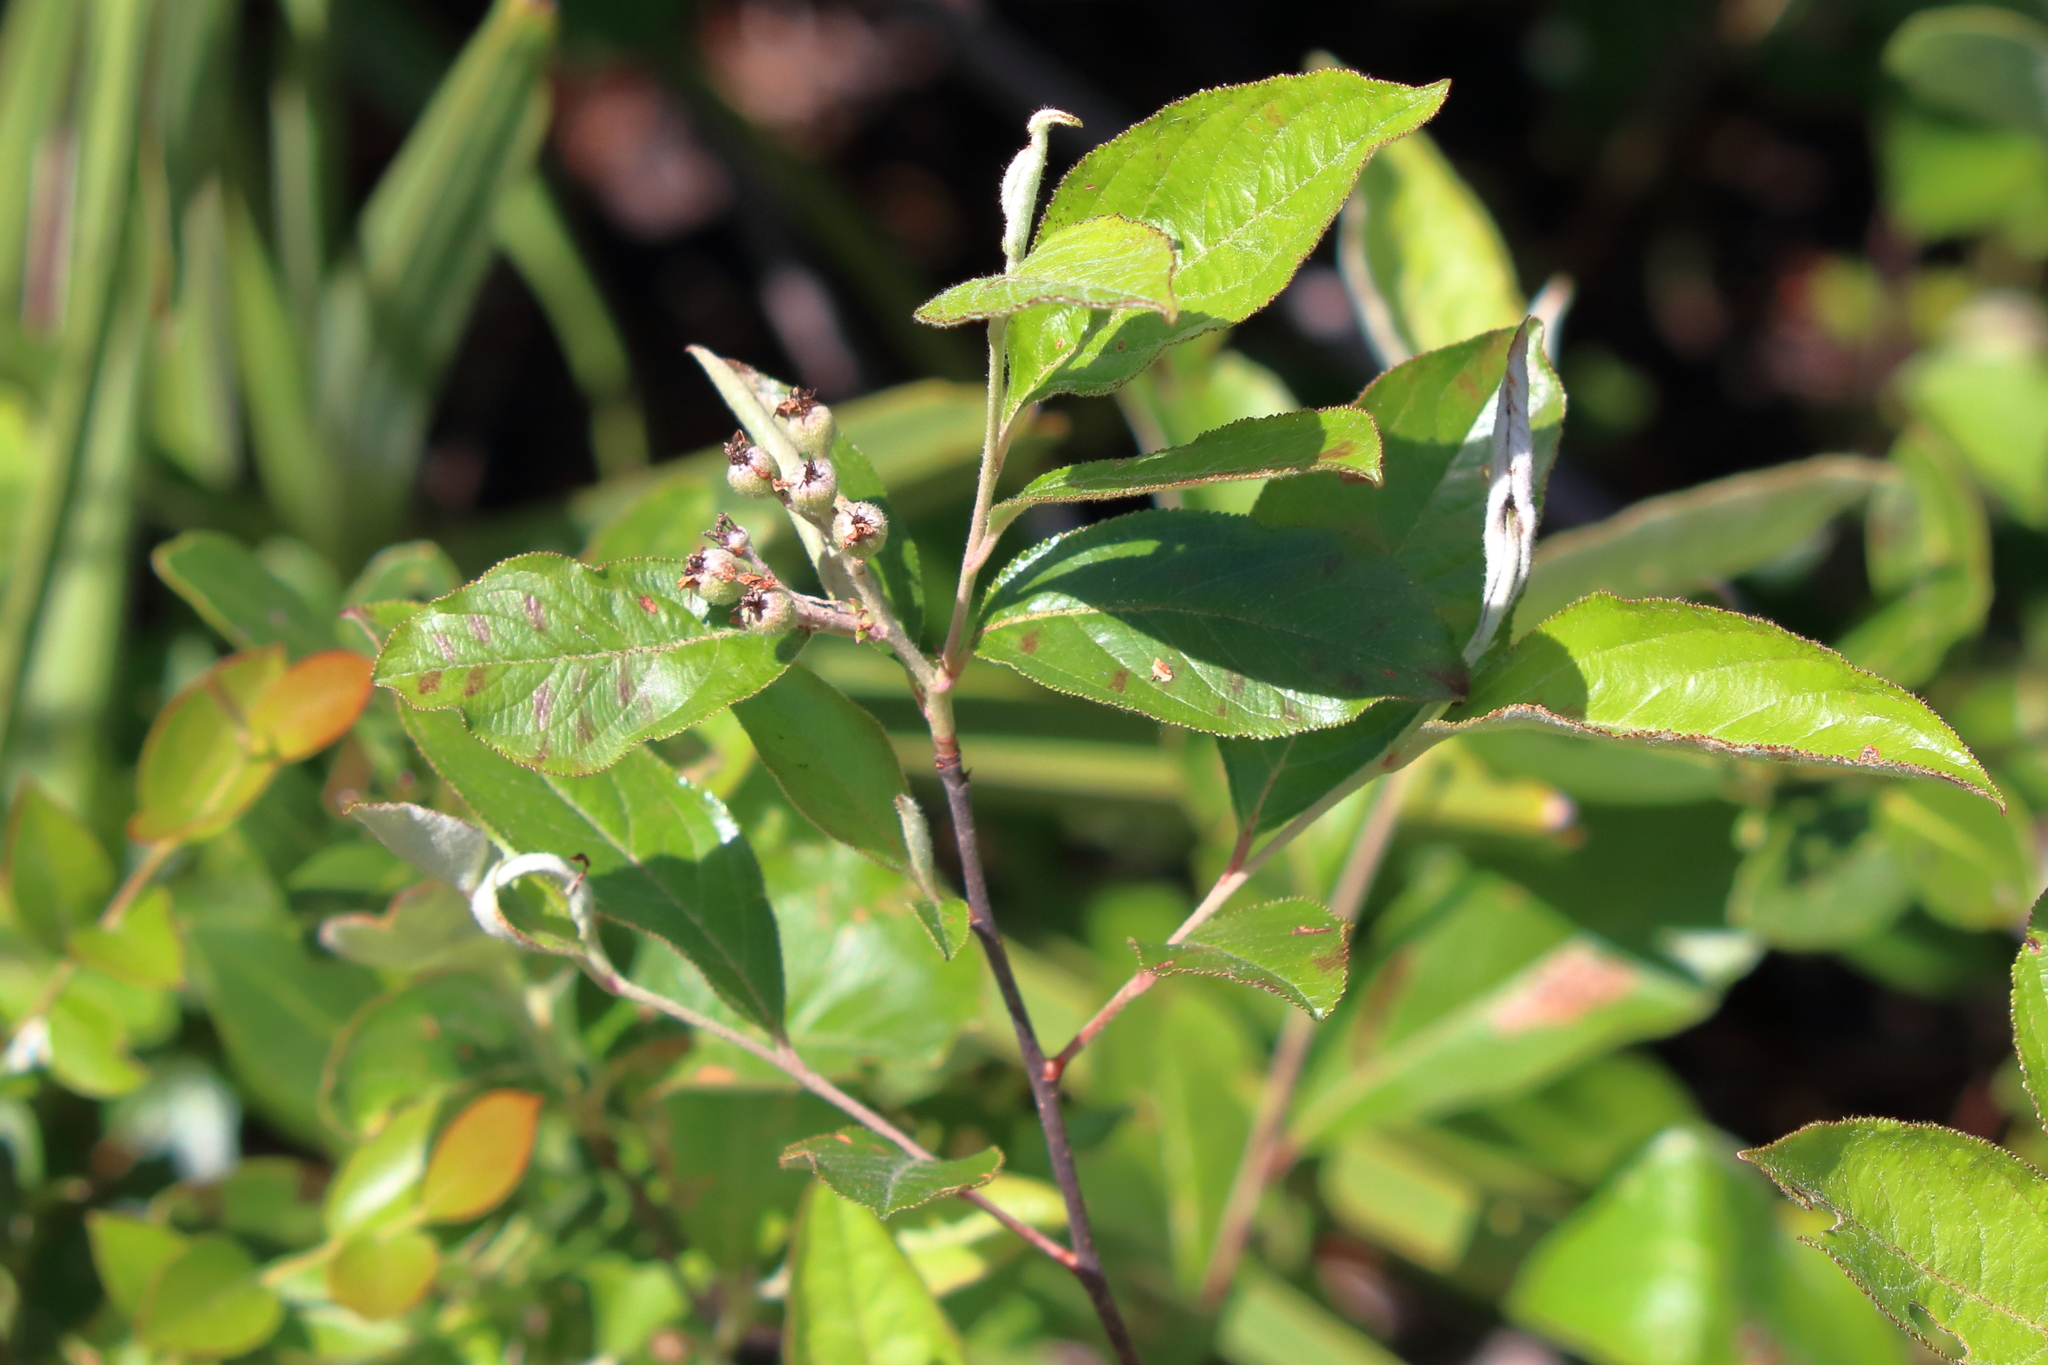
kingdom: Plantae
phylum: Tracheophyta
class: Magnoliopsida
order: Rosales
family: Rosaceae
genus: Aronia
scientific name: Aronia arbutifolia
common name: Red chokeberry
